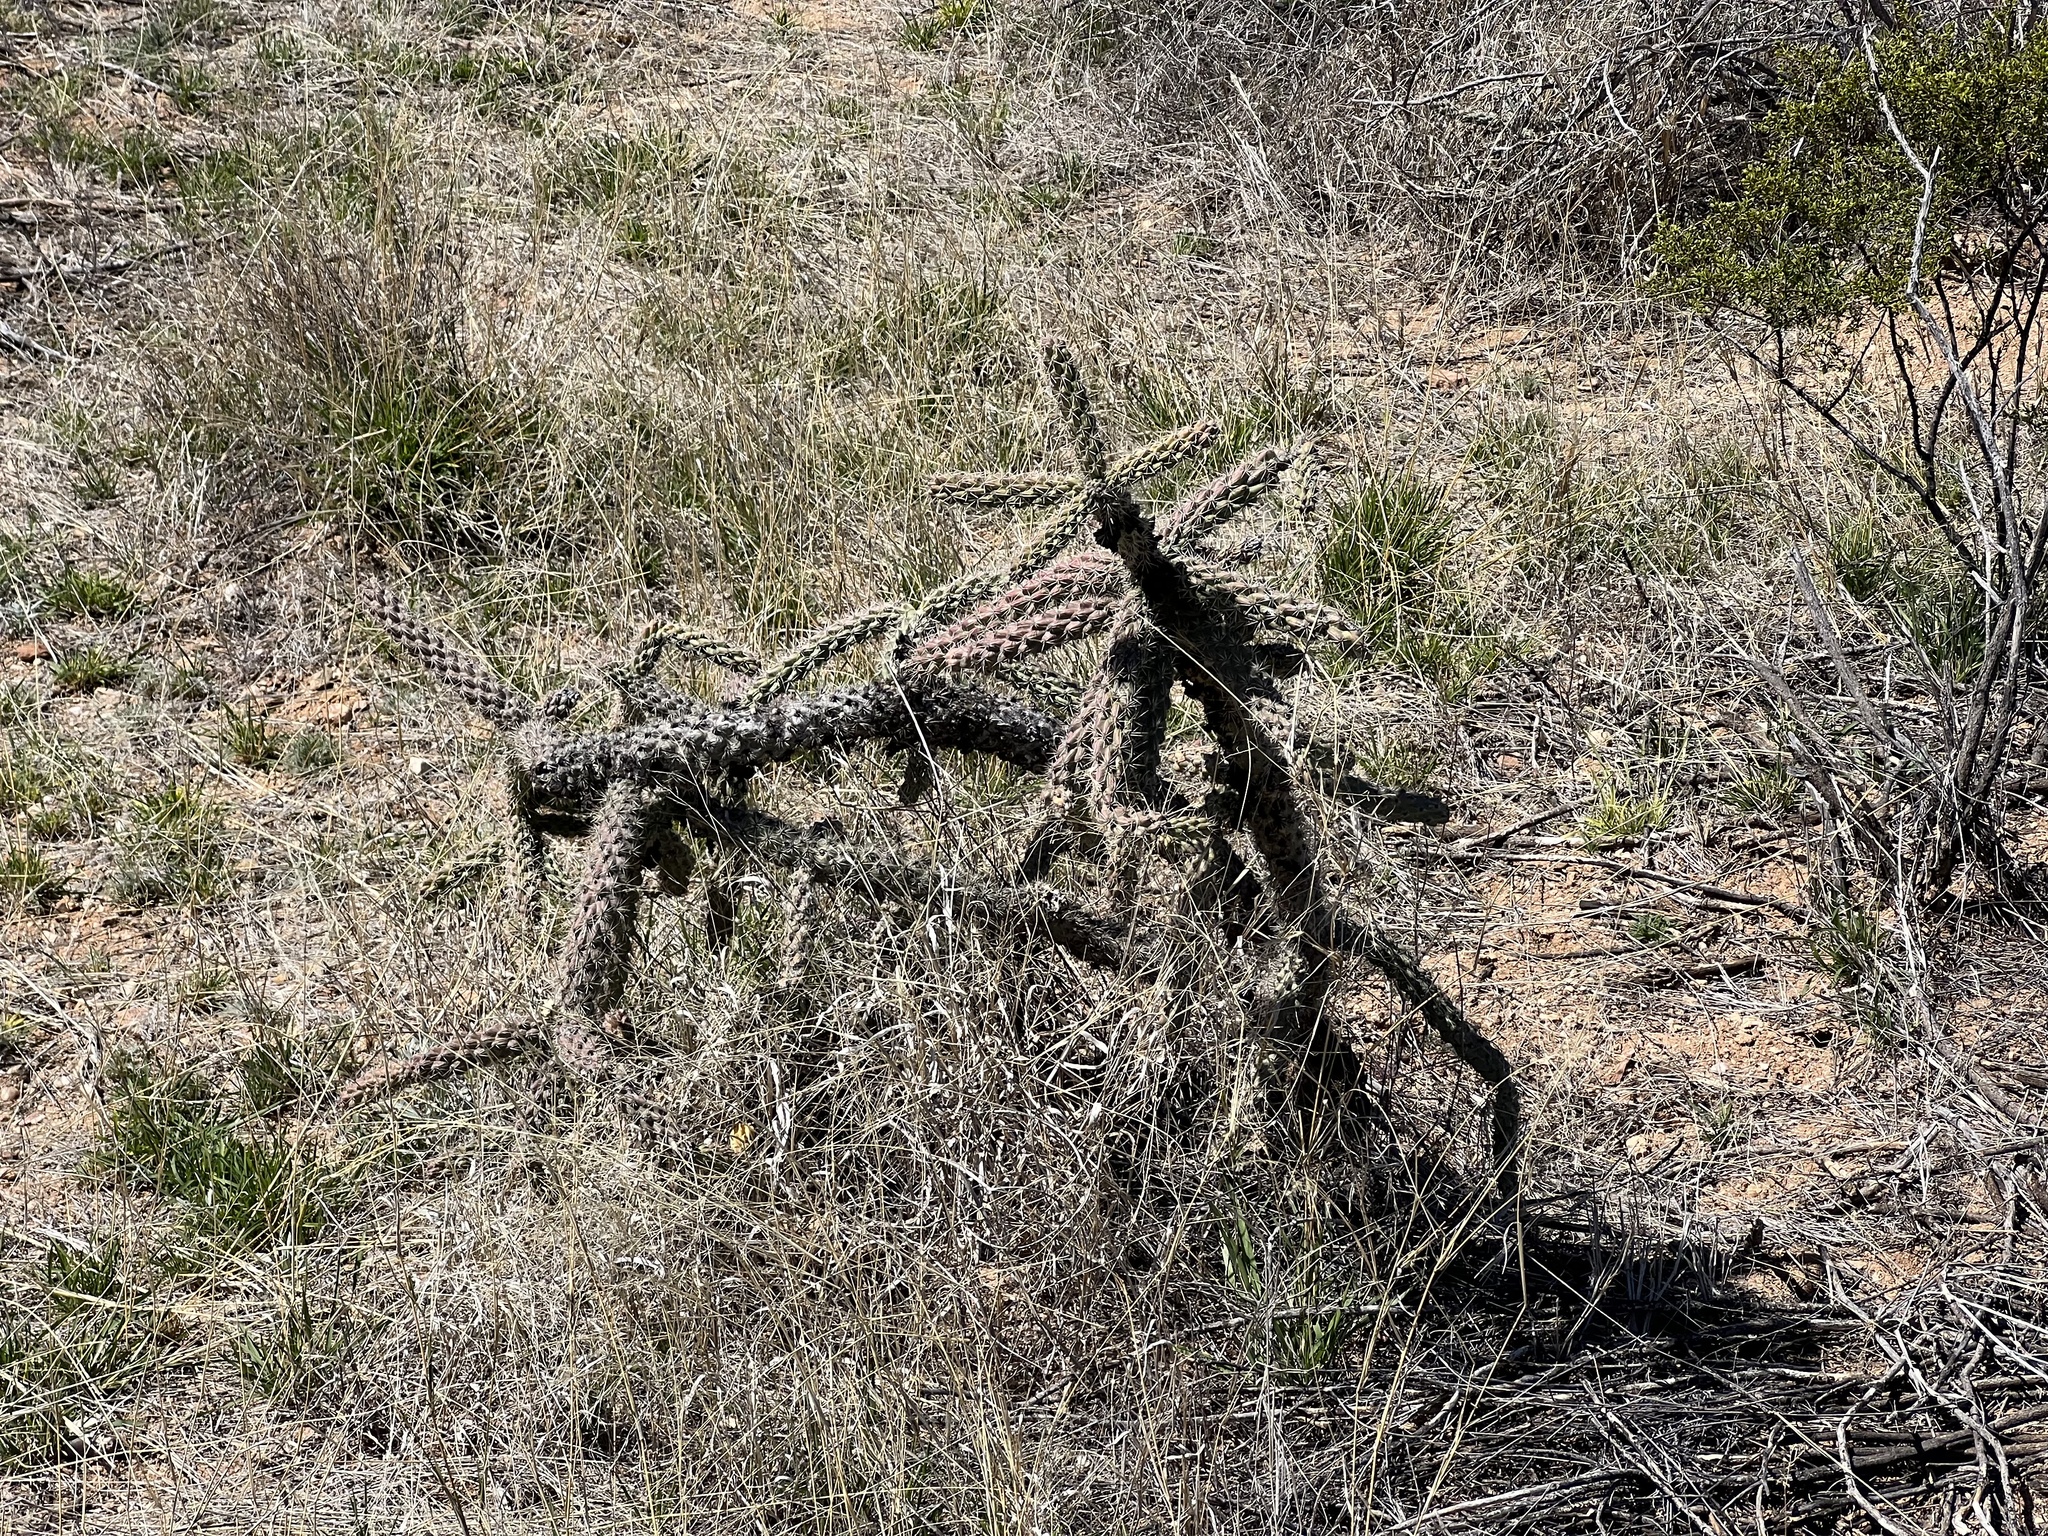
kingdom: Plantae
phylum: Tracheophyta
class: Magnoliopsida
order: Caryophyllales
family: Cactaceae
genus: Cylindropuntia
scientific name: Cylindropuntia imbricata
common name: Candelabrum cactus
